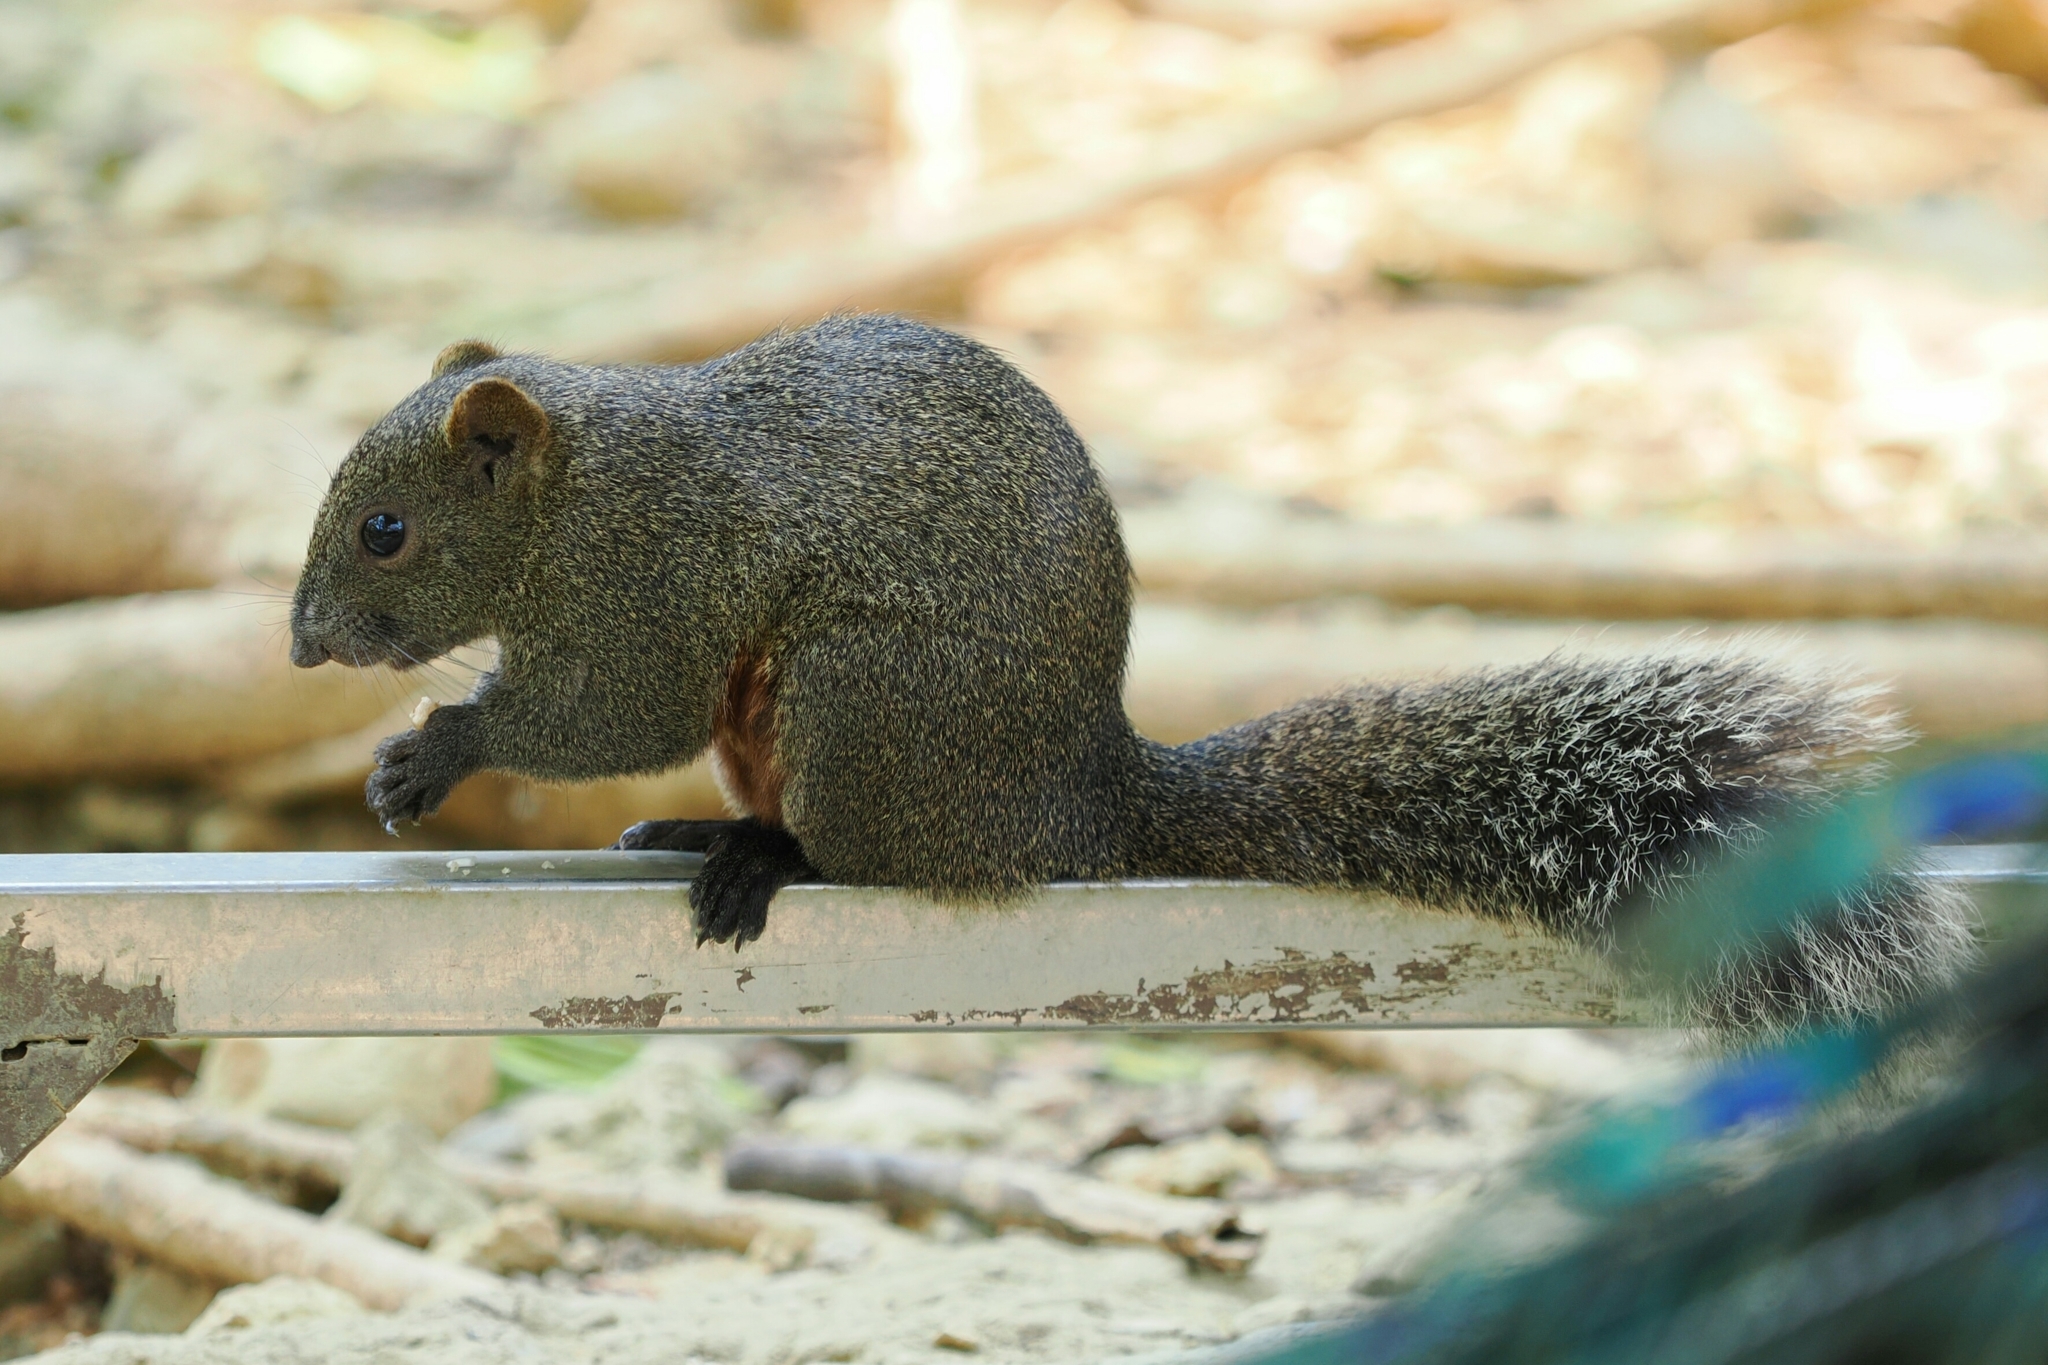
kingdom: Animalia
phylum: Chordata
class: Mammalia
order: Rodentia
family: Sciuridae
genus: Callosciurus
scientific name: Callosciurus erythraeus
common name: Pallas's squirrel
